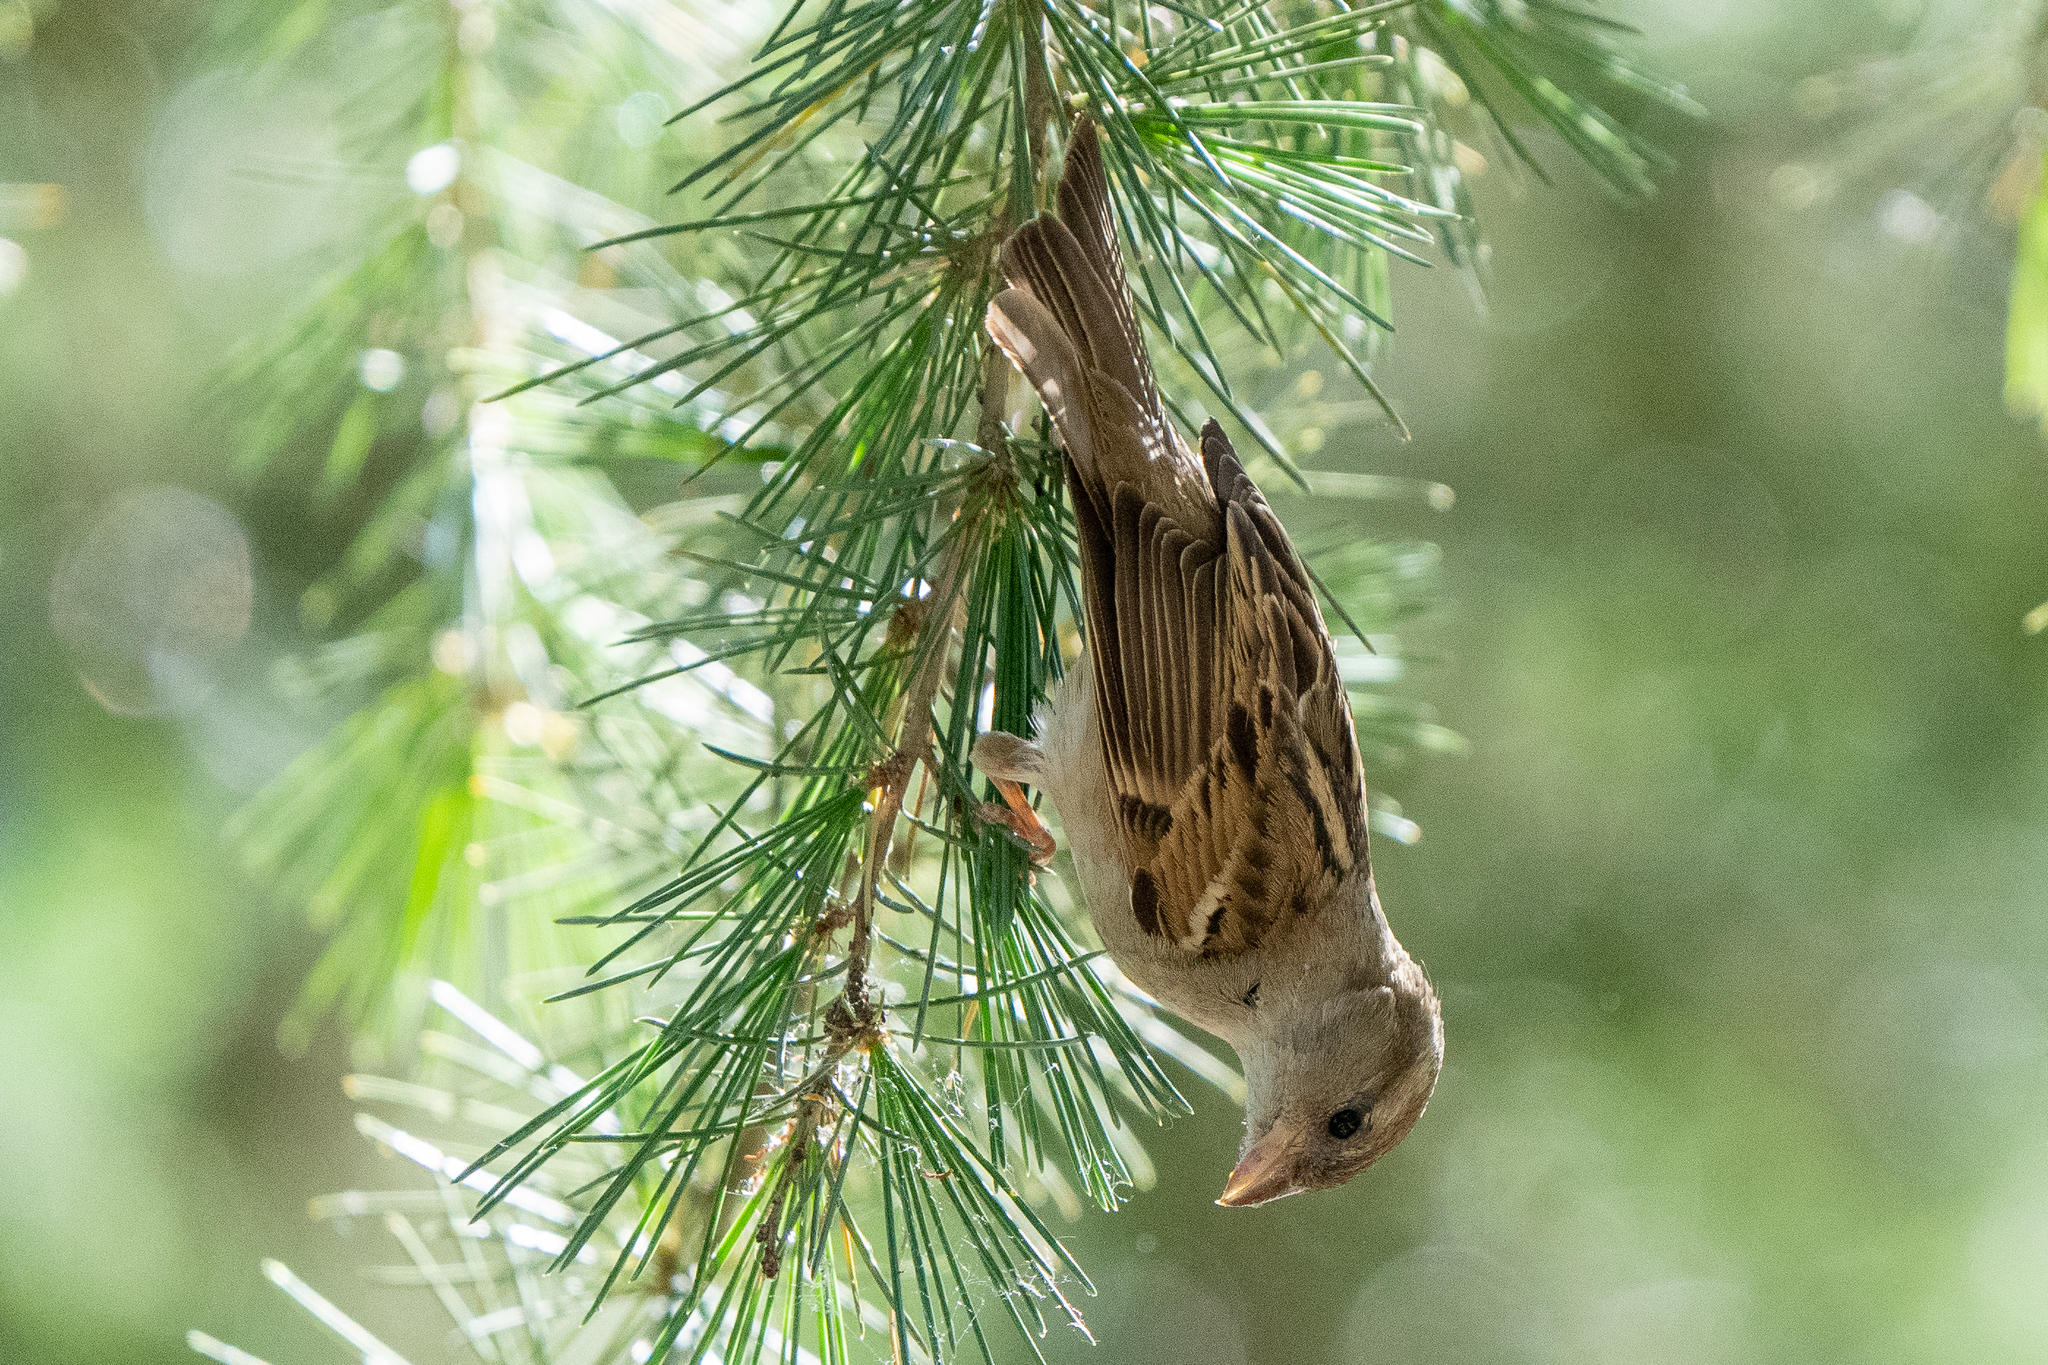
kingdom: Animalia
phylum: Chordata
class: Aves
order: Passeriformes
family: Passeridae
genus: Passer
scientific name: Passer domesticus
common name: House sparrow
